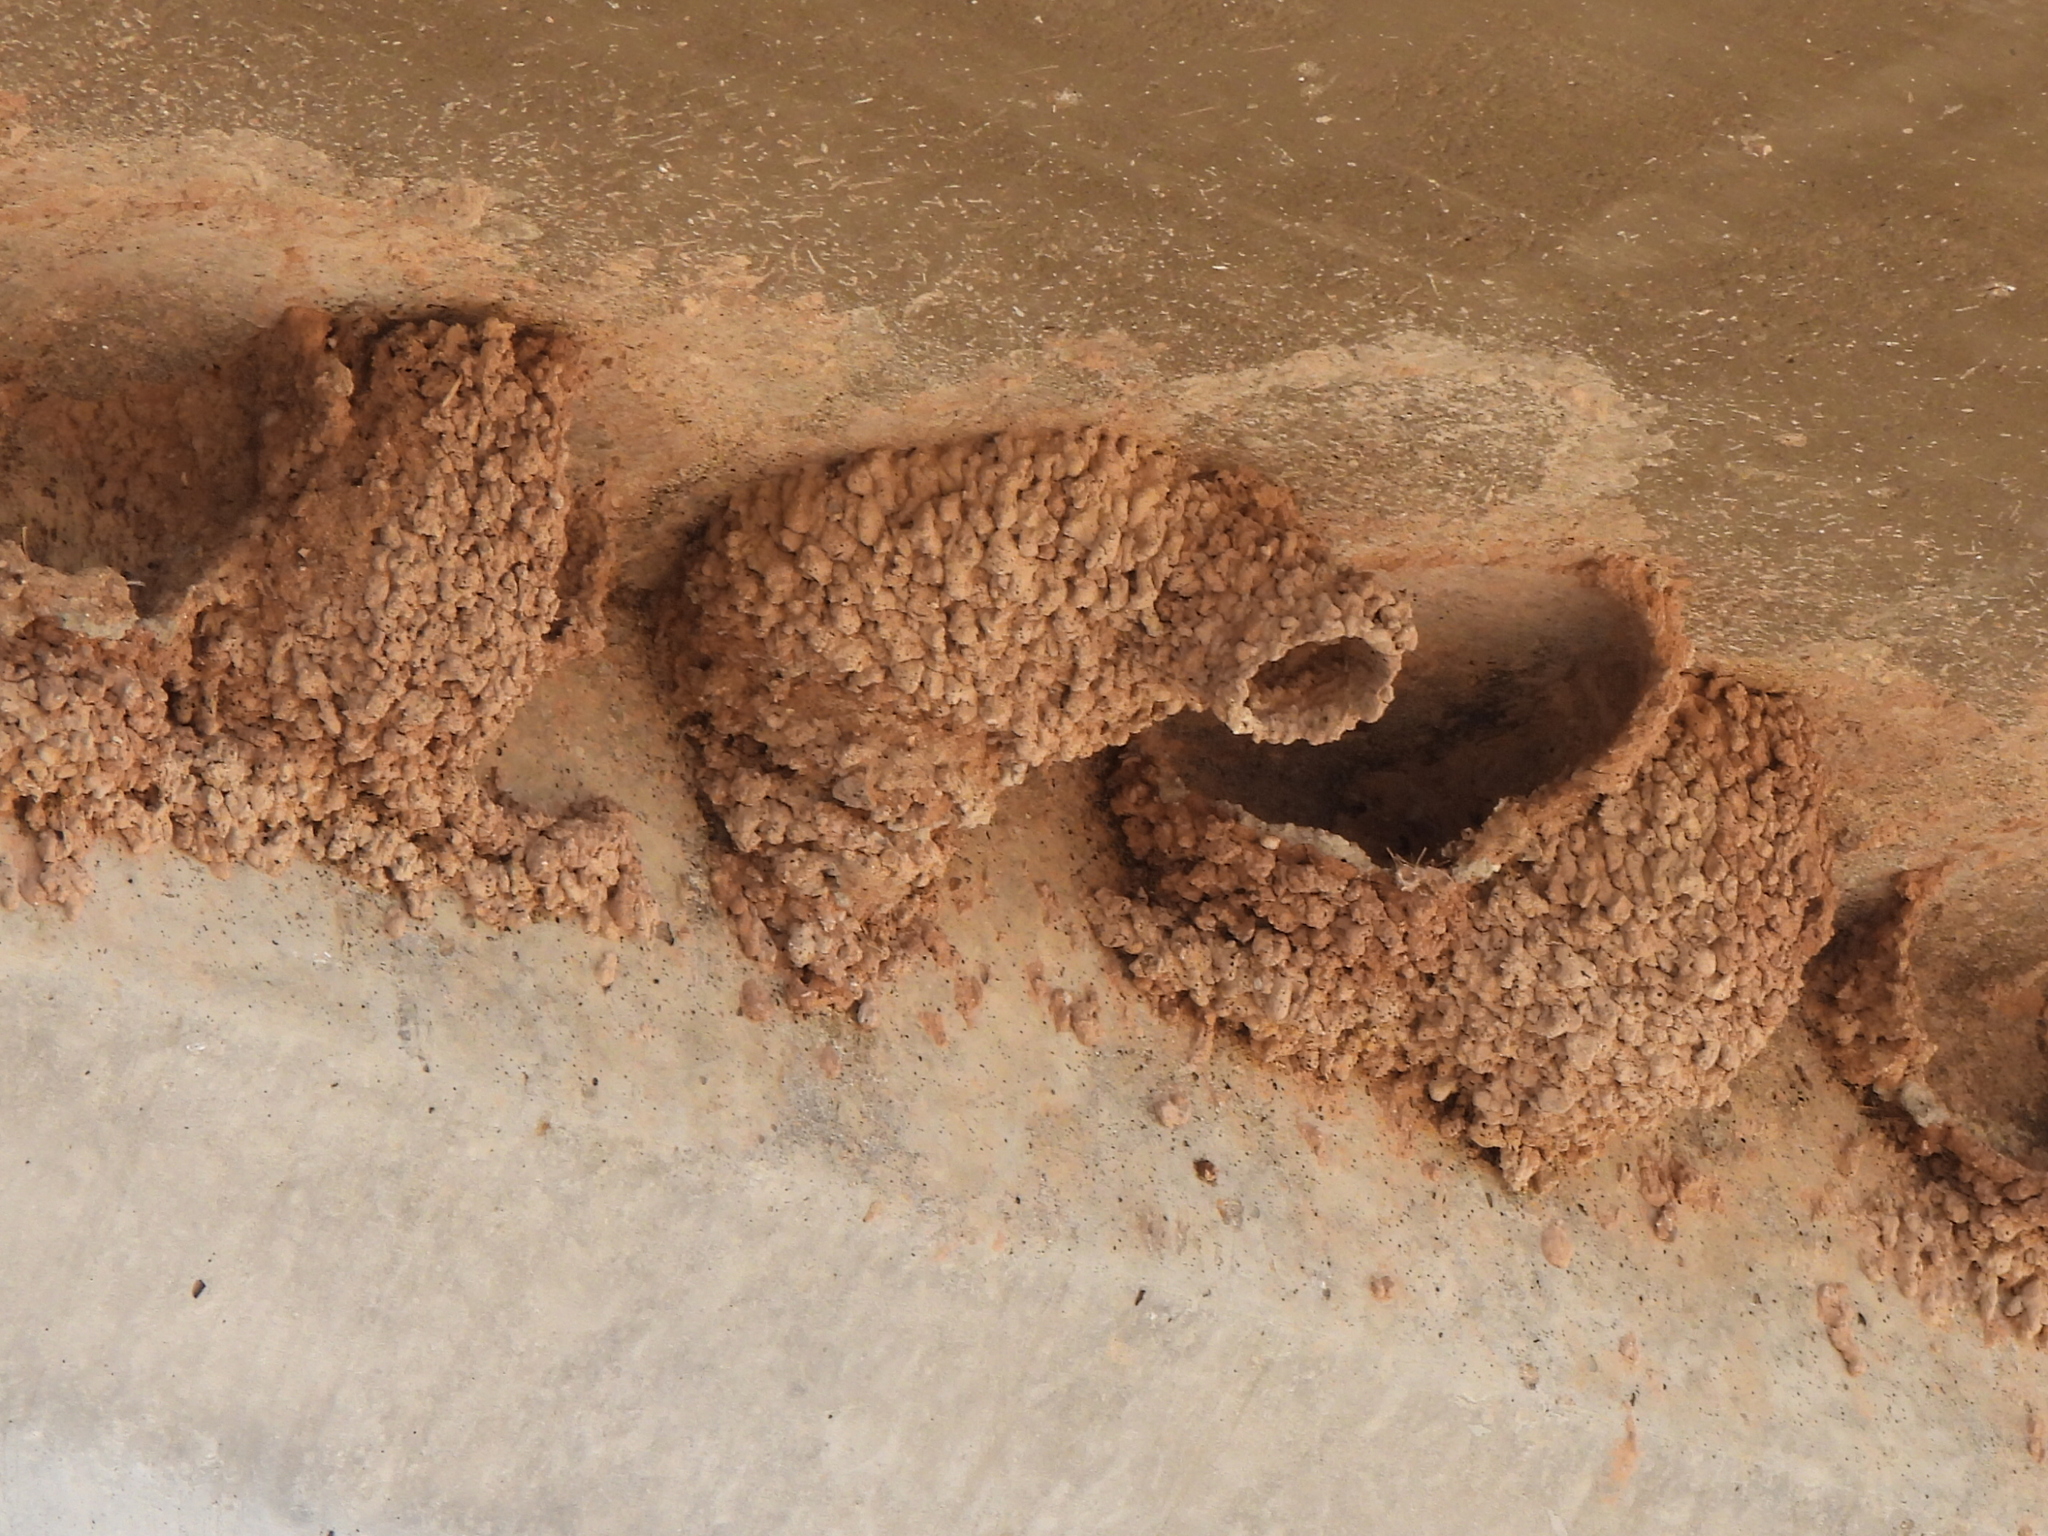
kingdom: Animalia
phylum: Chordata
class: Aves
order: Passeriformes
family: Hirundinidae
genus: Petrochelidon
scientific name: Petrochelidon pyrrhonota
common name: American cliff swallow
